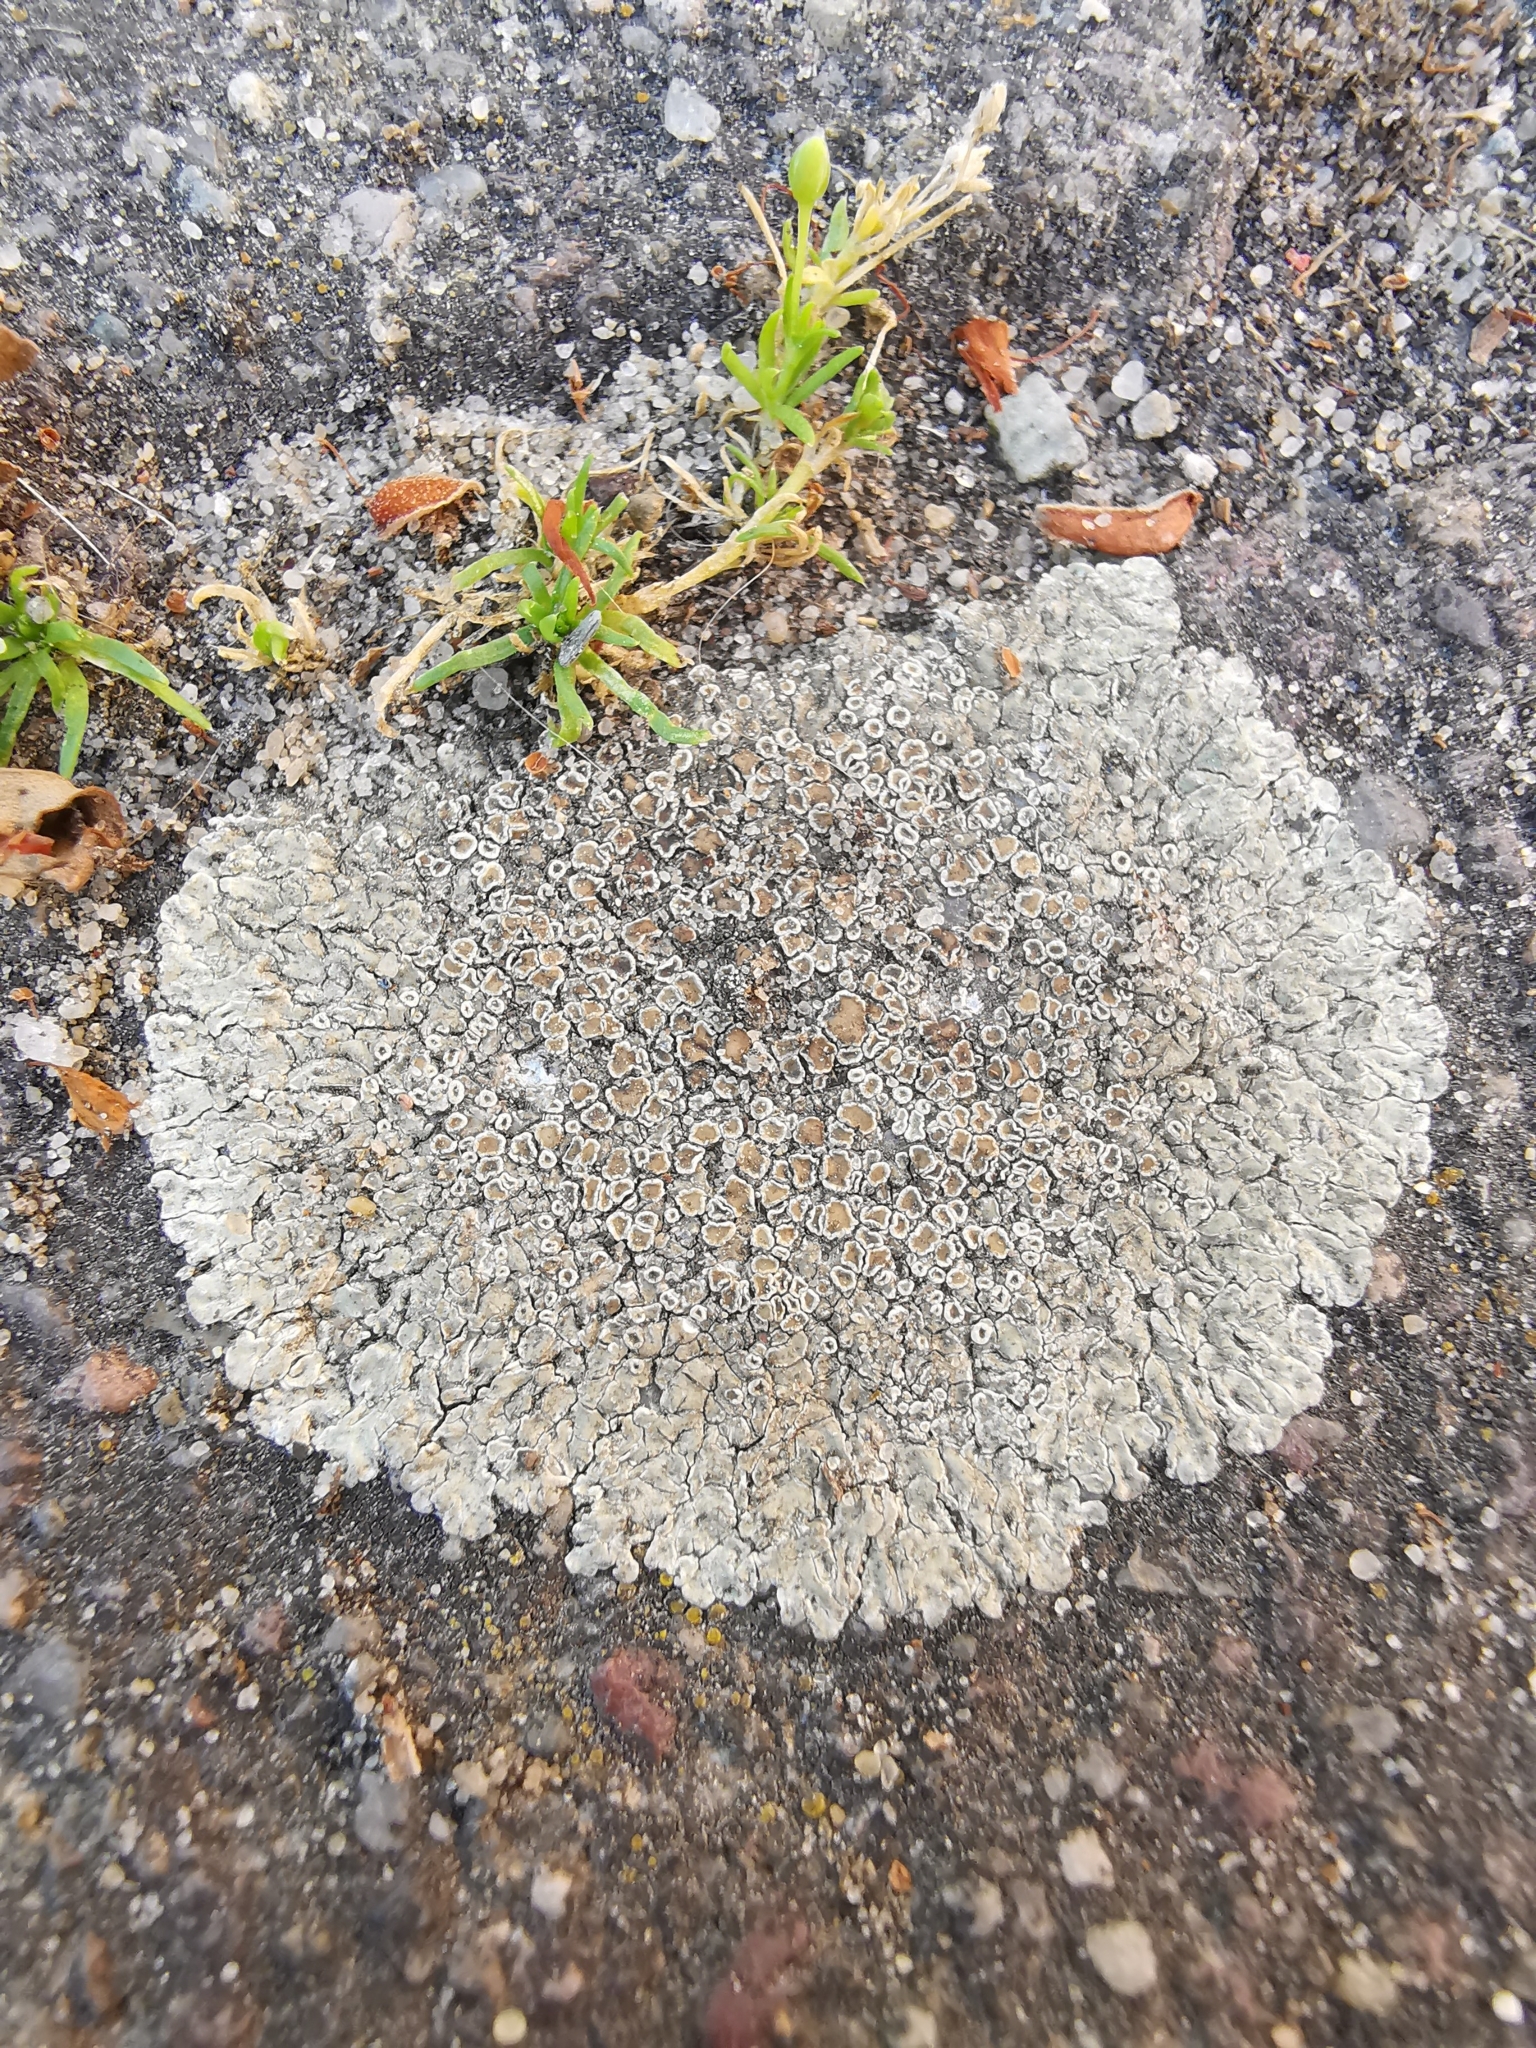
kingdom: Fungi
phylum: Ascomycota
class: Lecanoromycetes
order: Lecanorales
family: Lecanoraceae
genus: Protoparmeliopsis
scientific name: Protoparmeliopsis muralis
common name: Stonewall rim lichen
